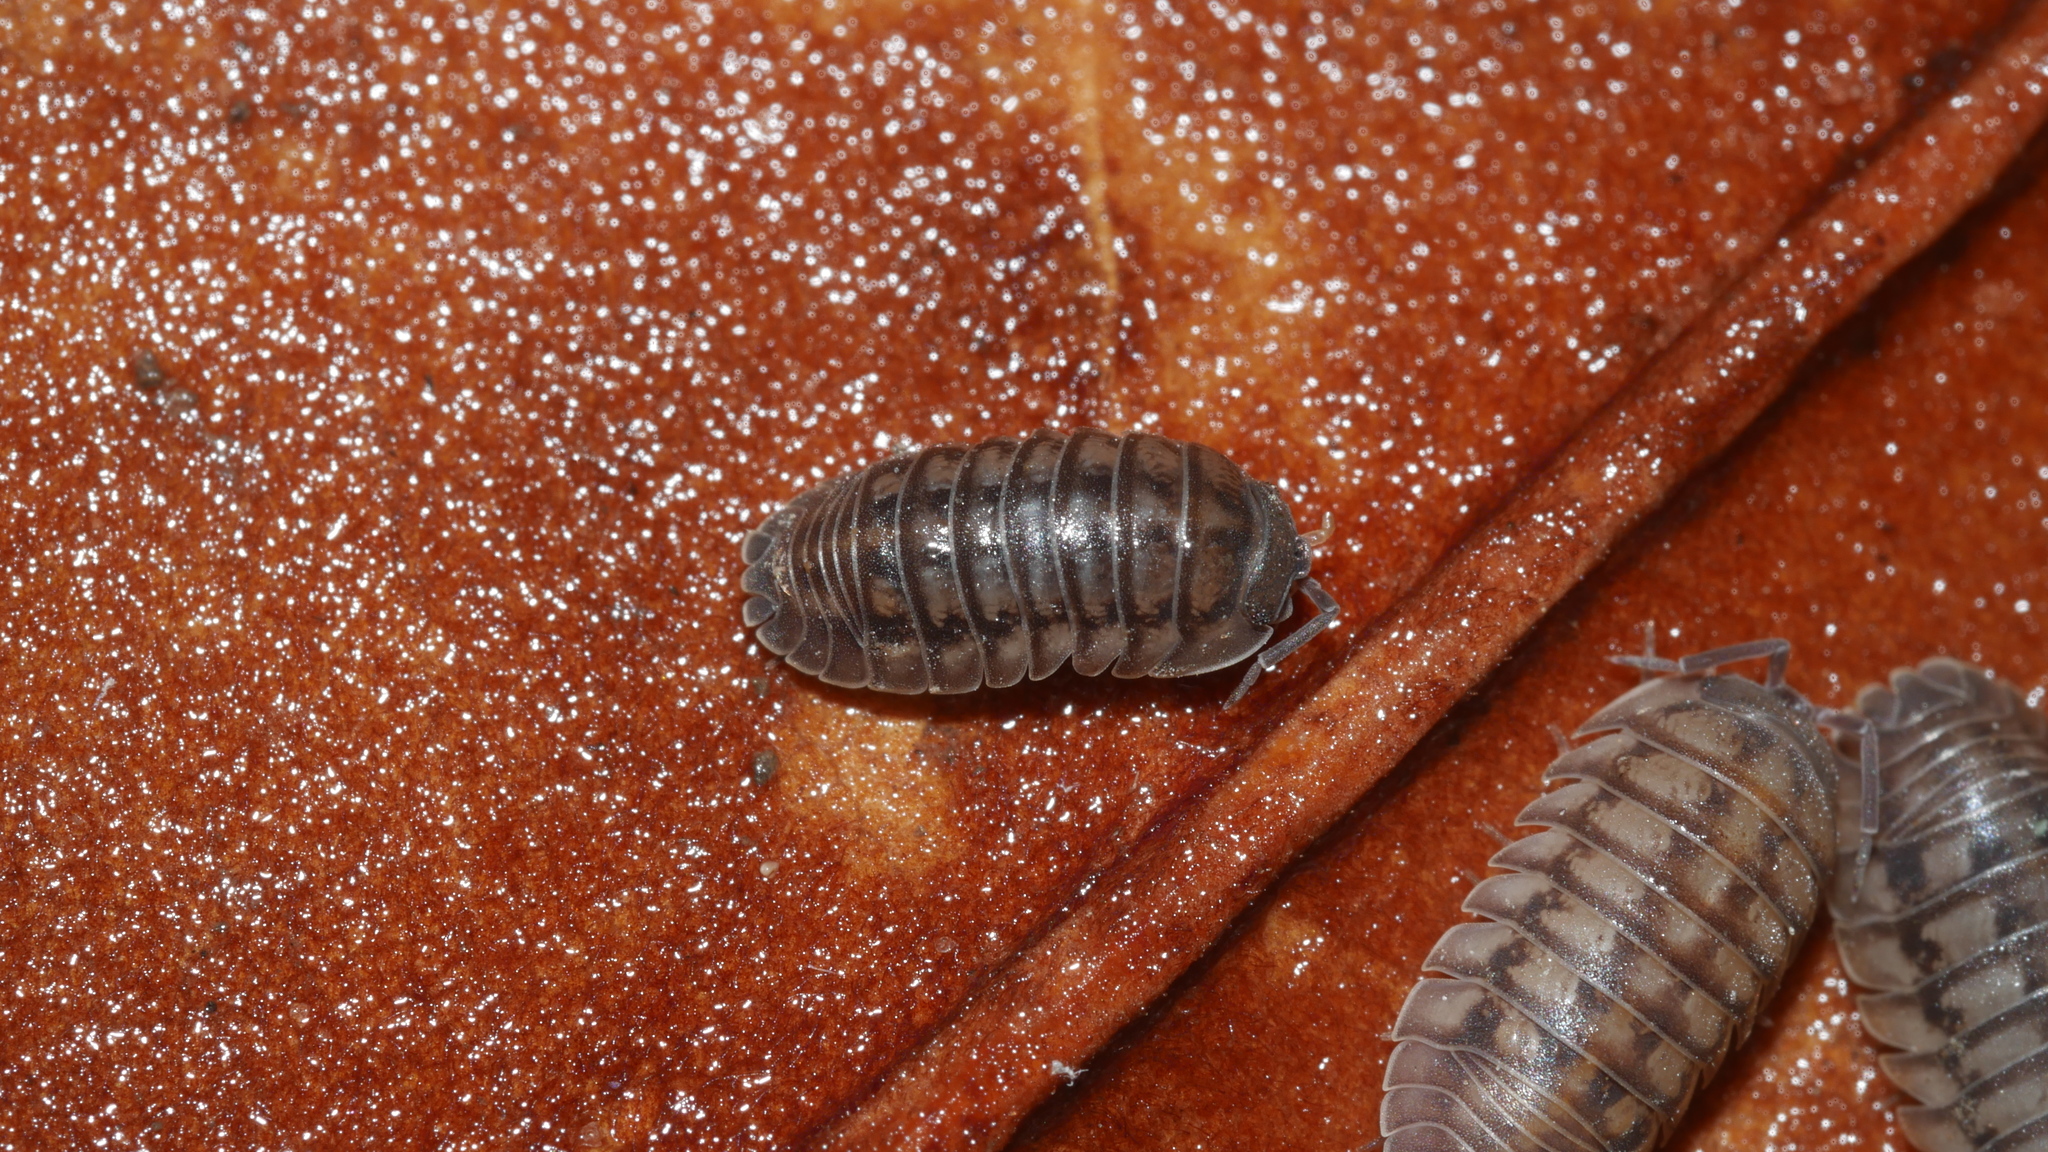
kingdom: Animalia
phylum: Arthropoda
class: Malacostraca
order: Isopoda
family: Armadillidiidae
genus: Armadillidium
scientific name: Armadillidium nasatum
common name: Isopod
